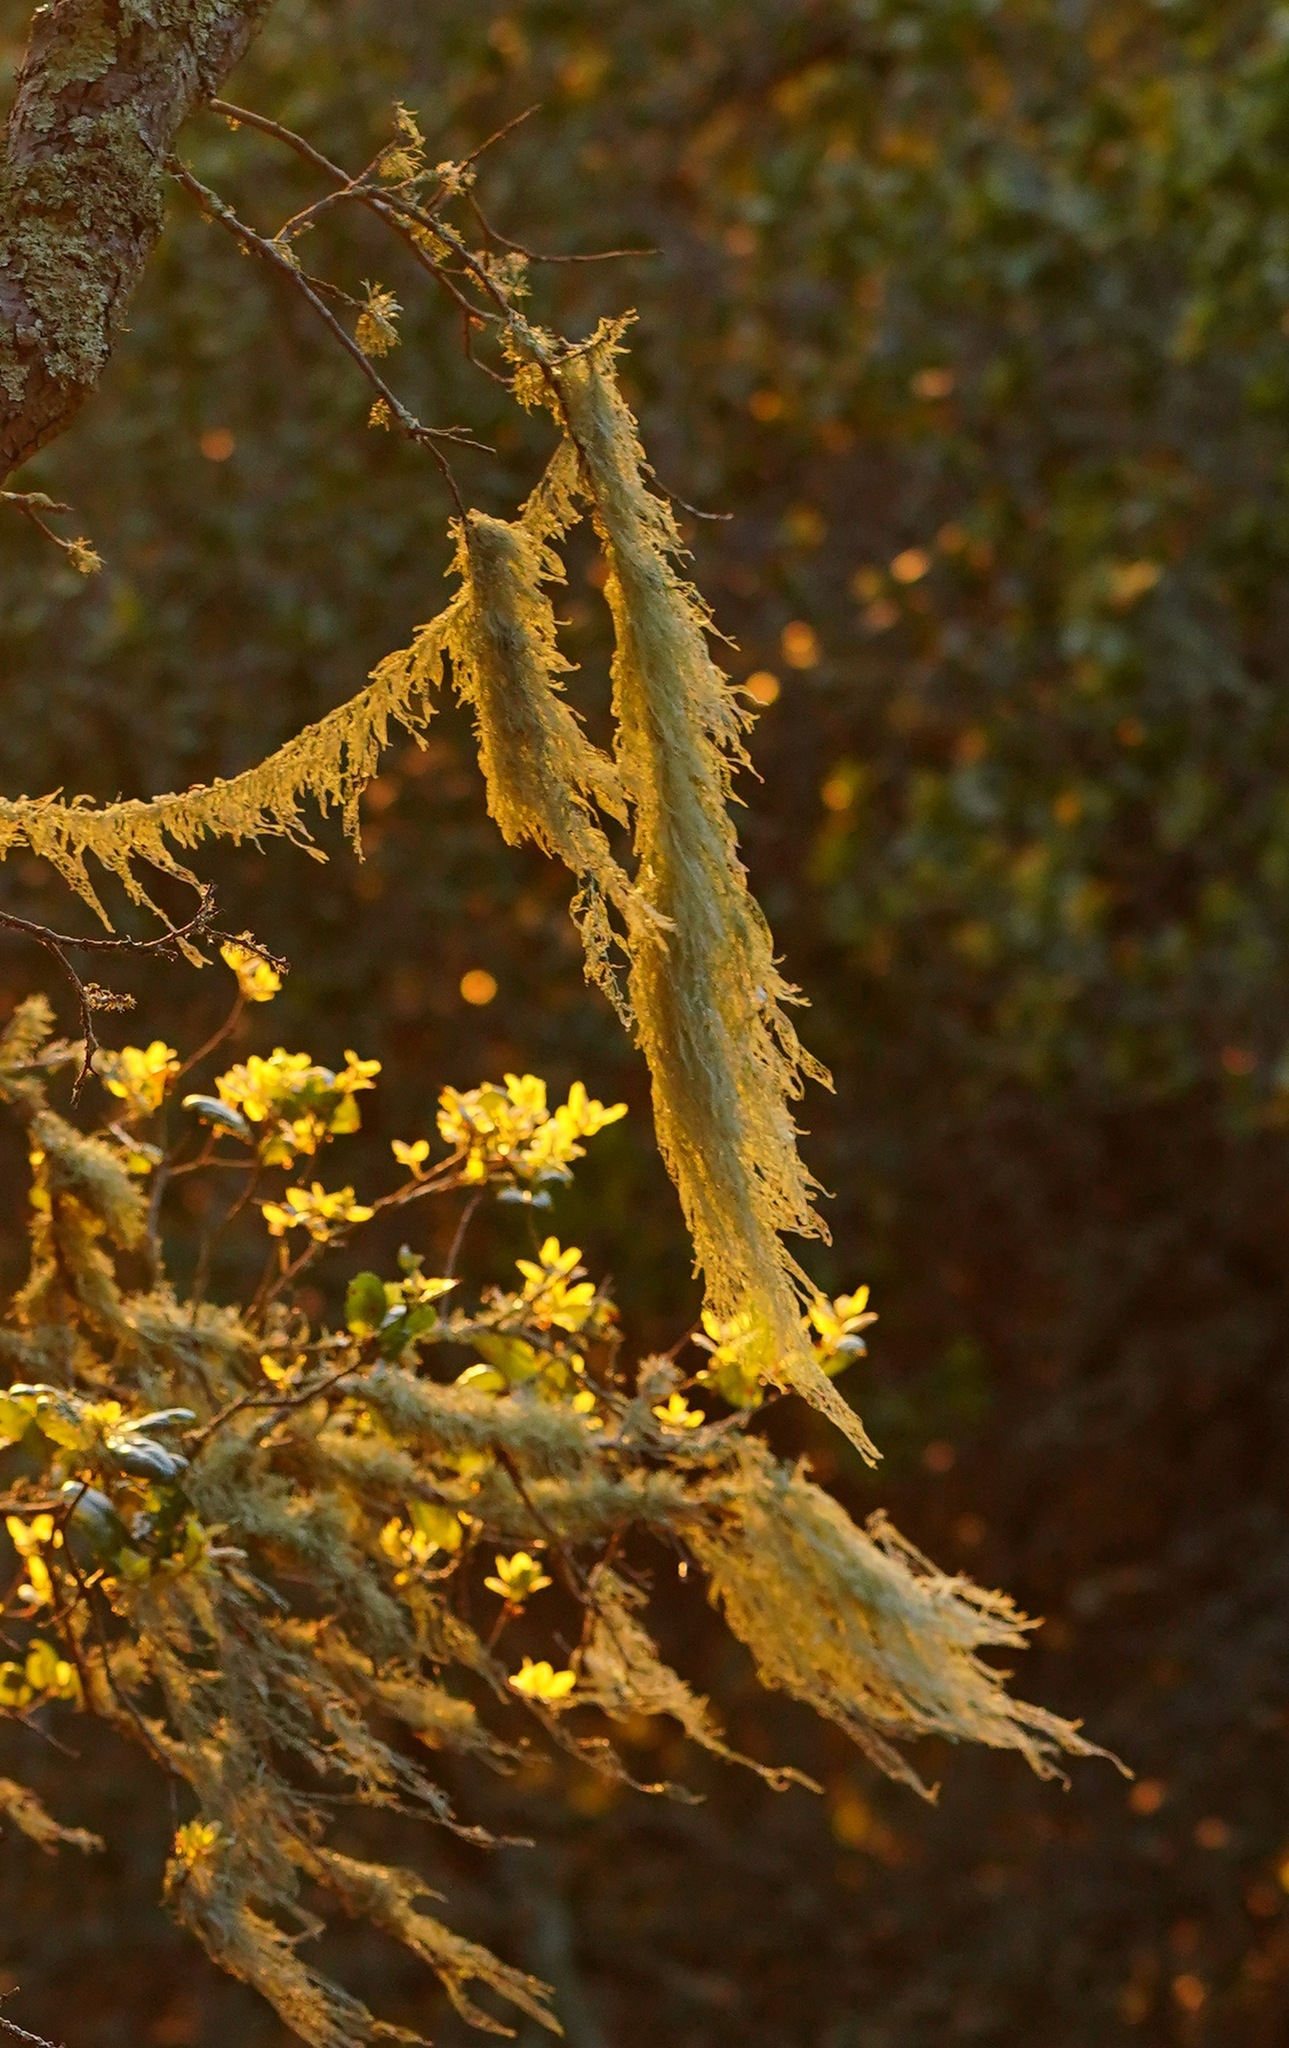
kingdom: Fungi
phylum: Ascomycota
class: Lecanoromycetes
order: Lecanorales
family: Ramalinaceae
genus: Ramalina
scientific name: Ramalina menziesii
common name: Lace lichen
